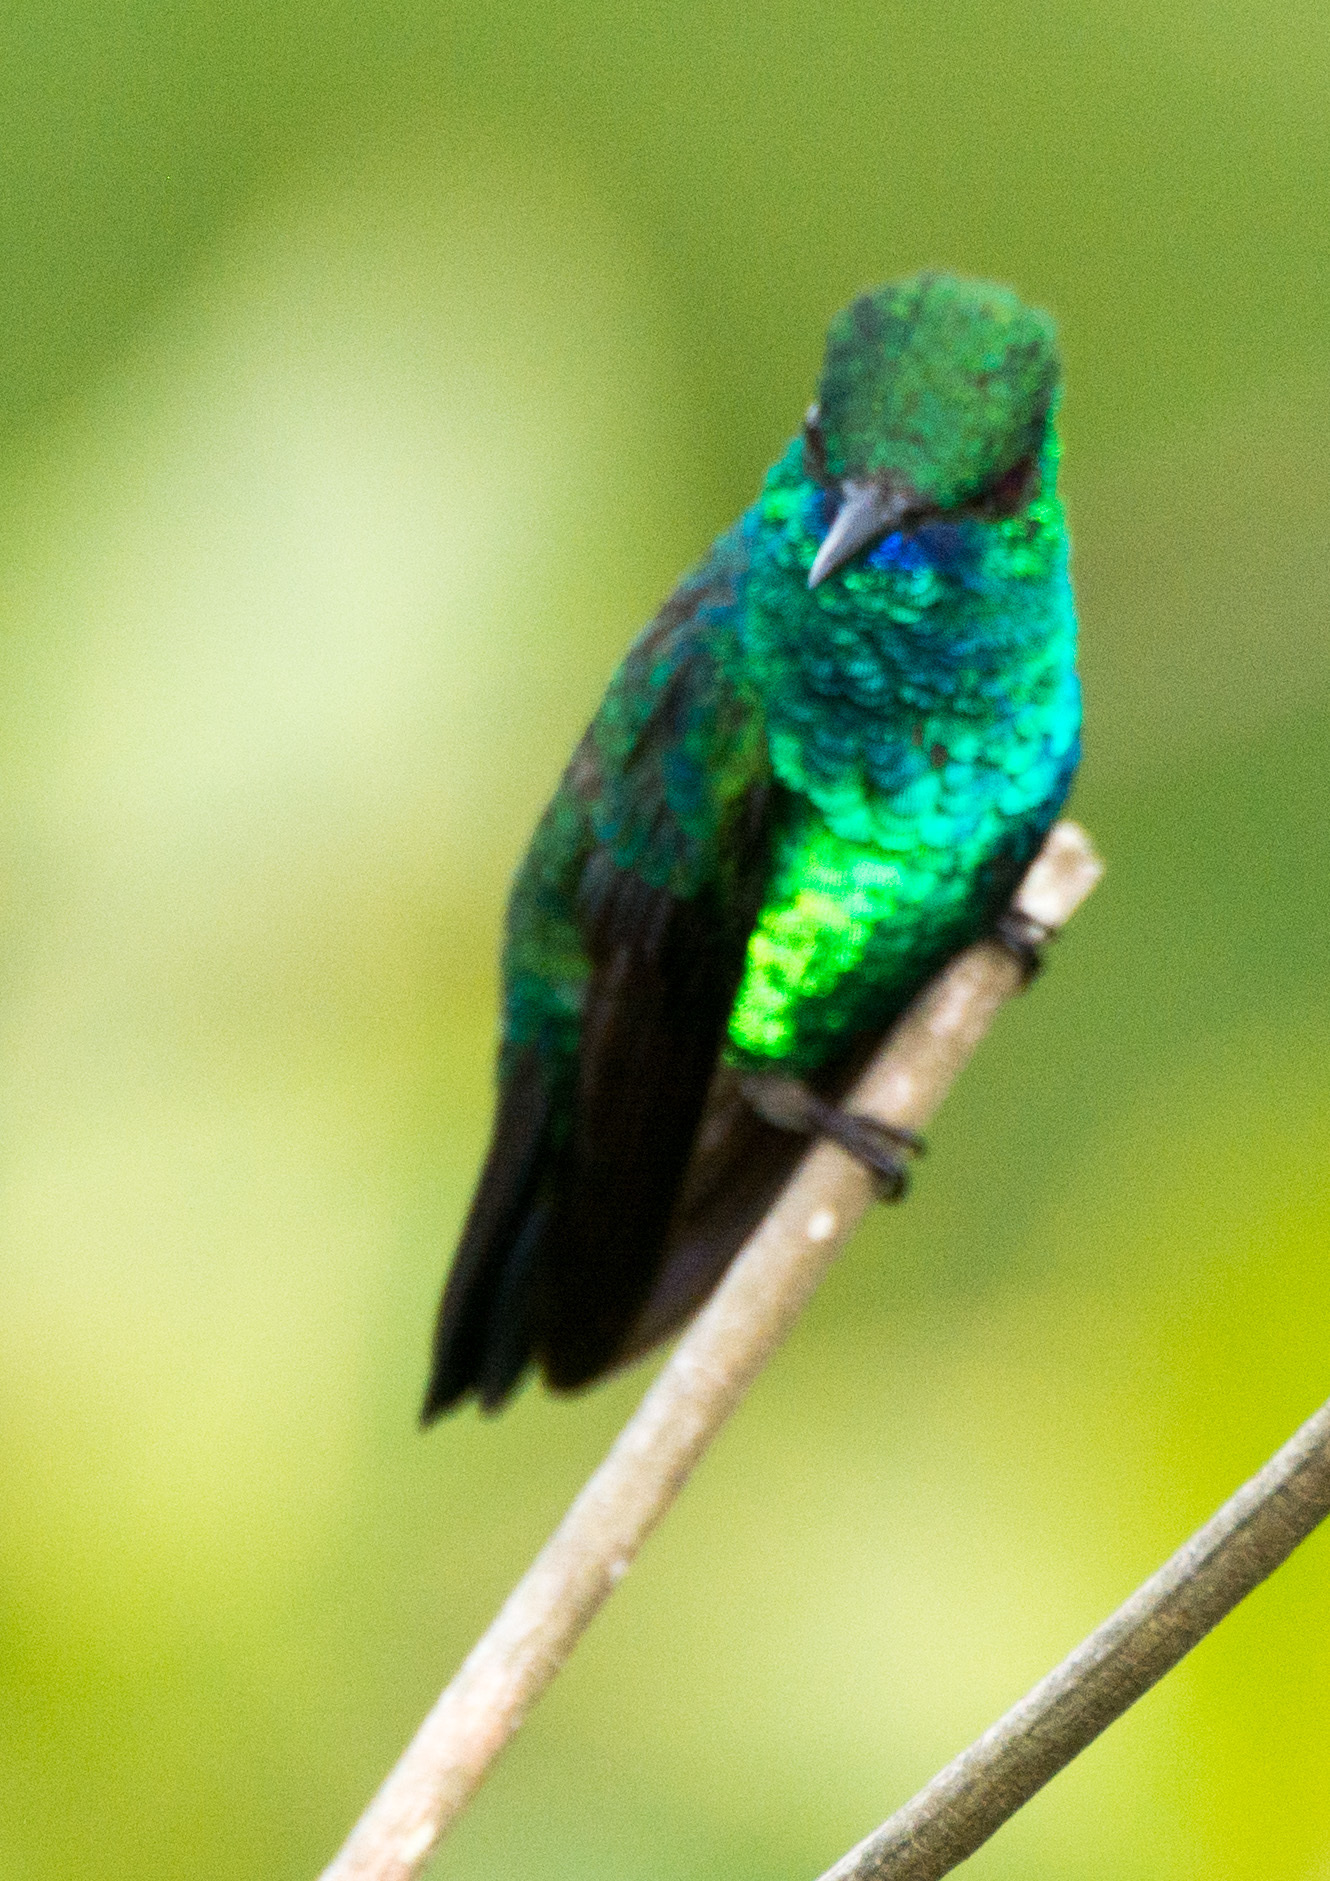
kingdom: Animalia
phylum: Chordata
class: Aves
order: Apodiformes
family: Trochilidae
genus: Chlorestes
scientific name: Chlorestes notata
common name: Blue-chinned sapphire
